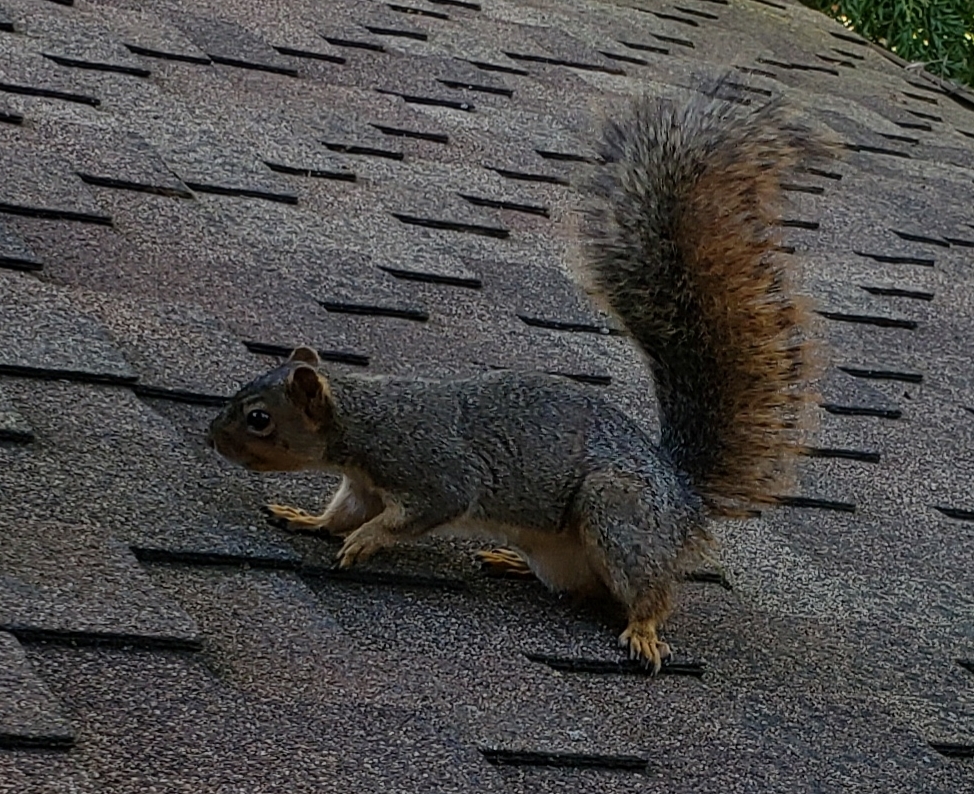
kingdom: Animalia
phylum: Chordata
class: Mammalia
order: Rodentia
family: Sciuridae
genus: Sciurus
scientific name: Sciurus niger
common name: Fox squirrel
